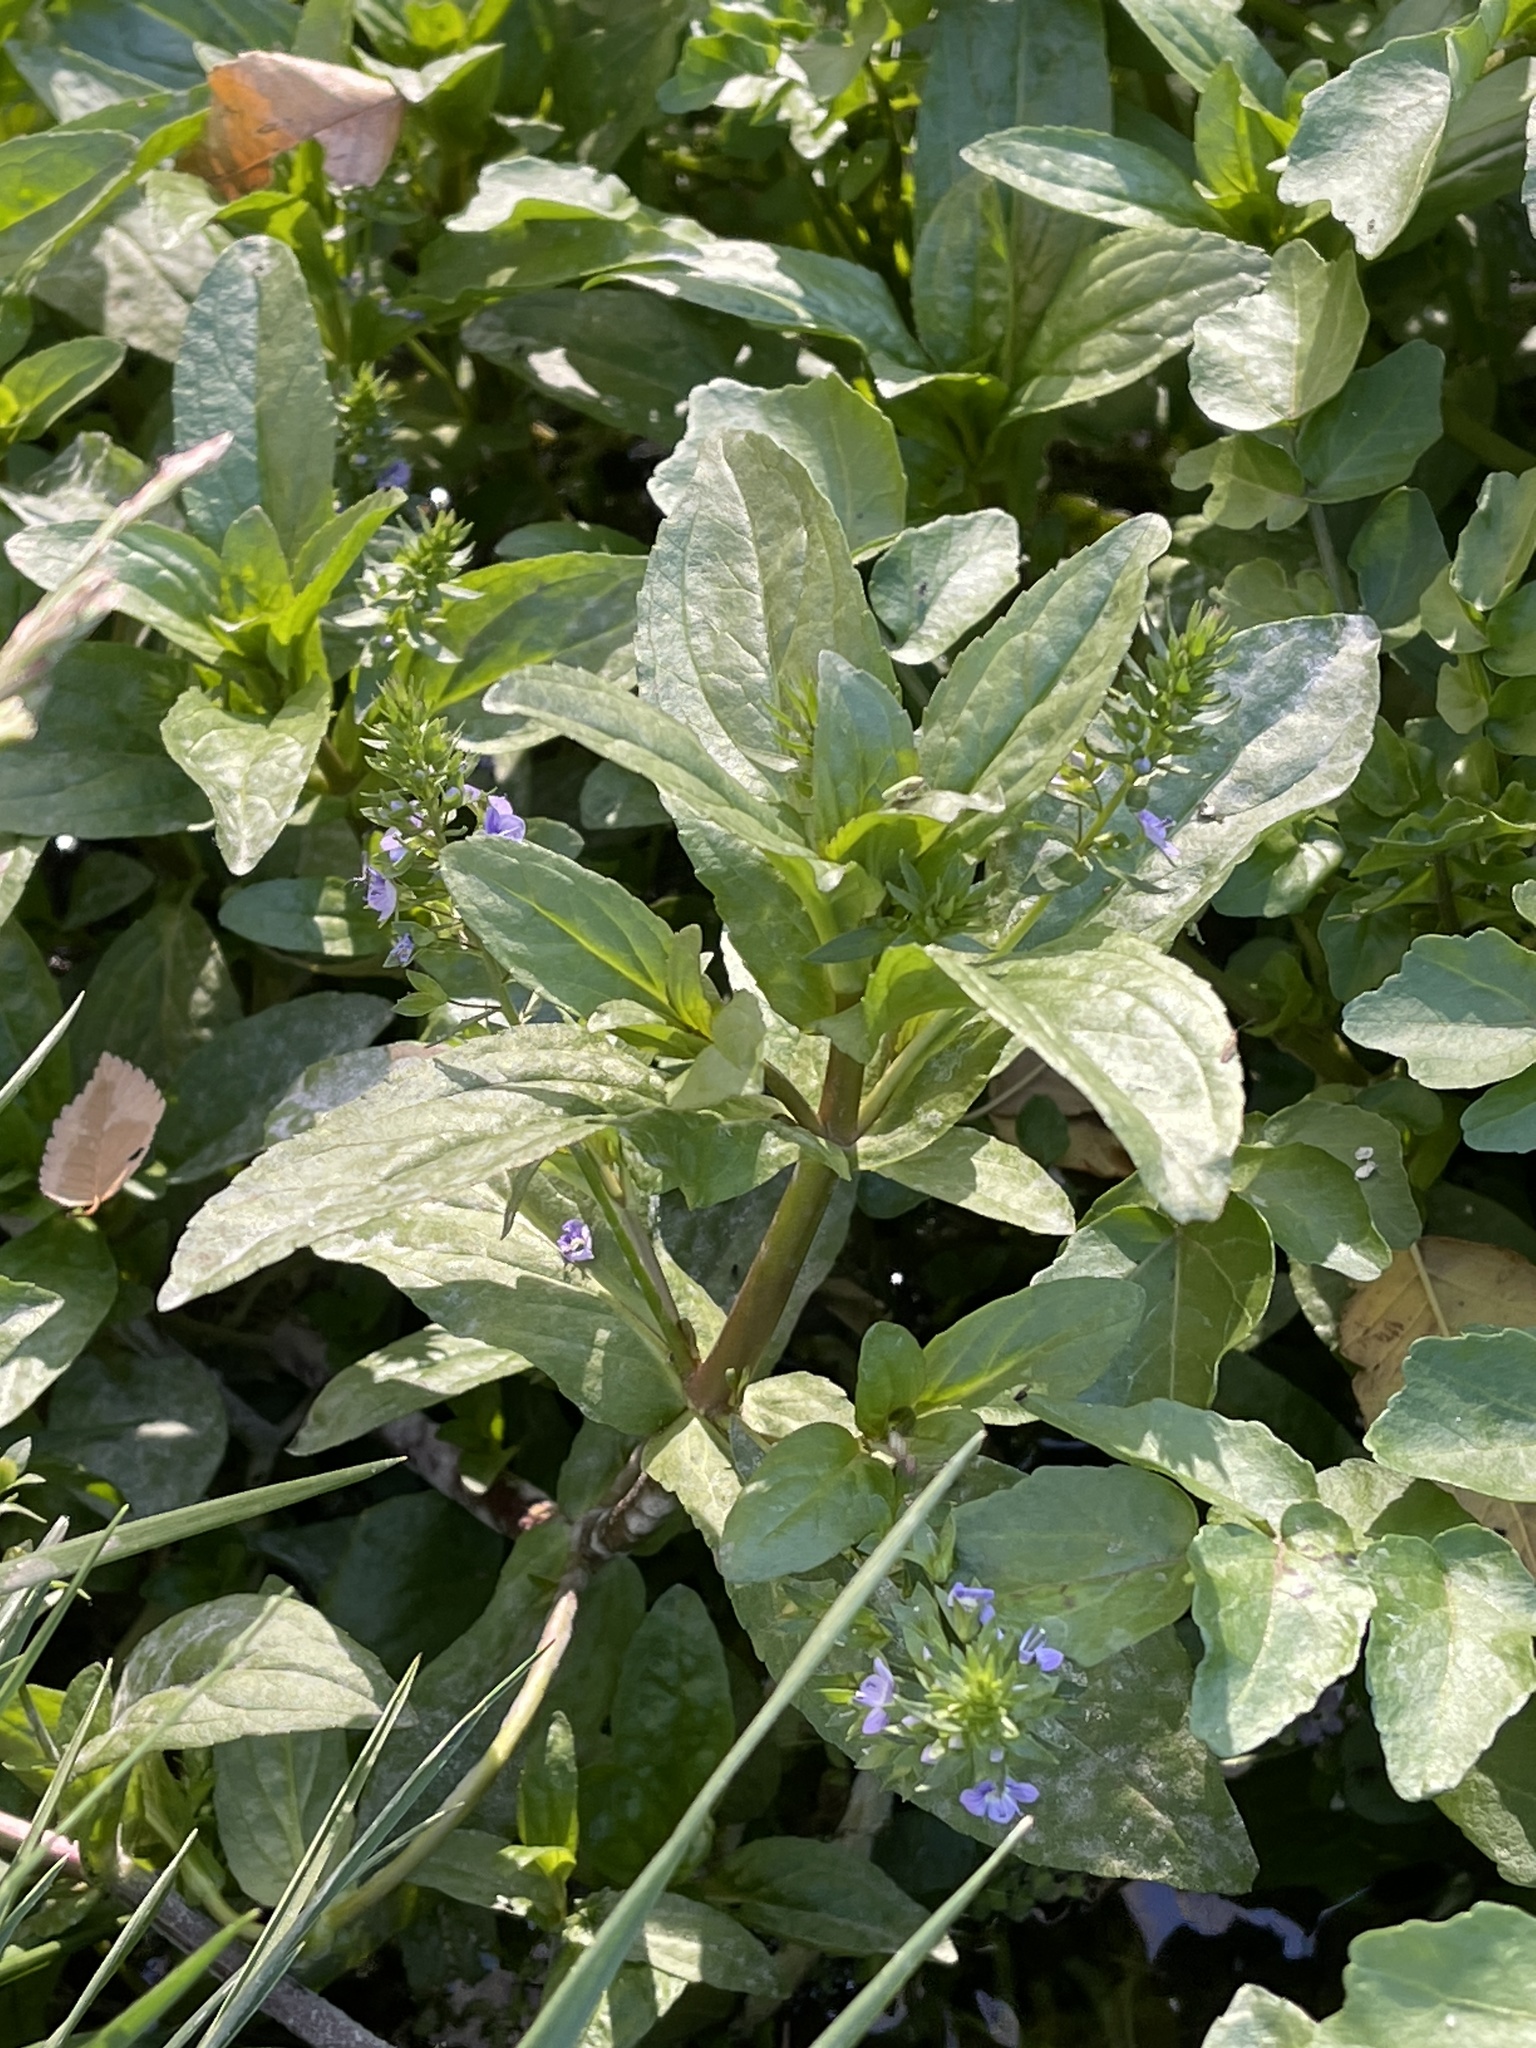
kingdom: Plantae
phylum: Tracheophyta
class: Magnoliopsida
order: Lamiales
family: Plantaginaceae
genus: Veronica
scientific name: Veronica anagallis-aquatica
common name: Water speedwell
